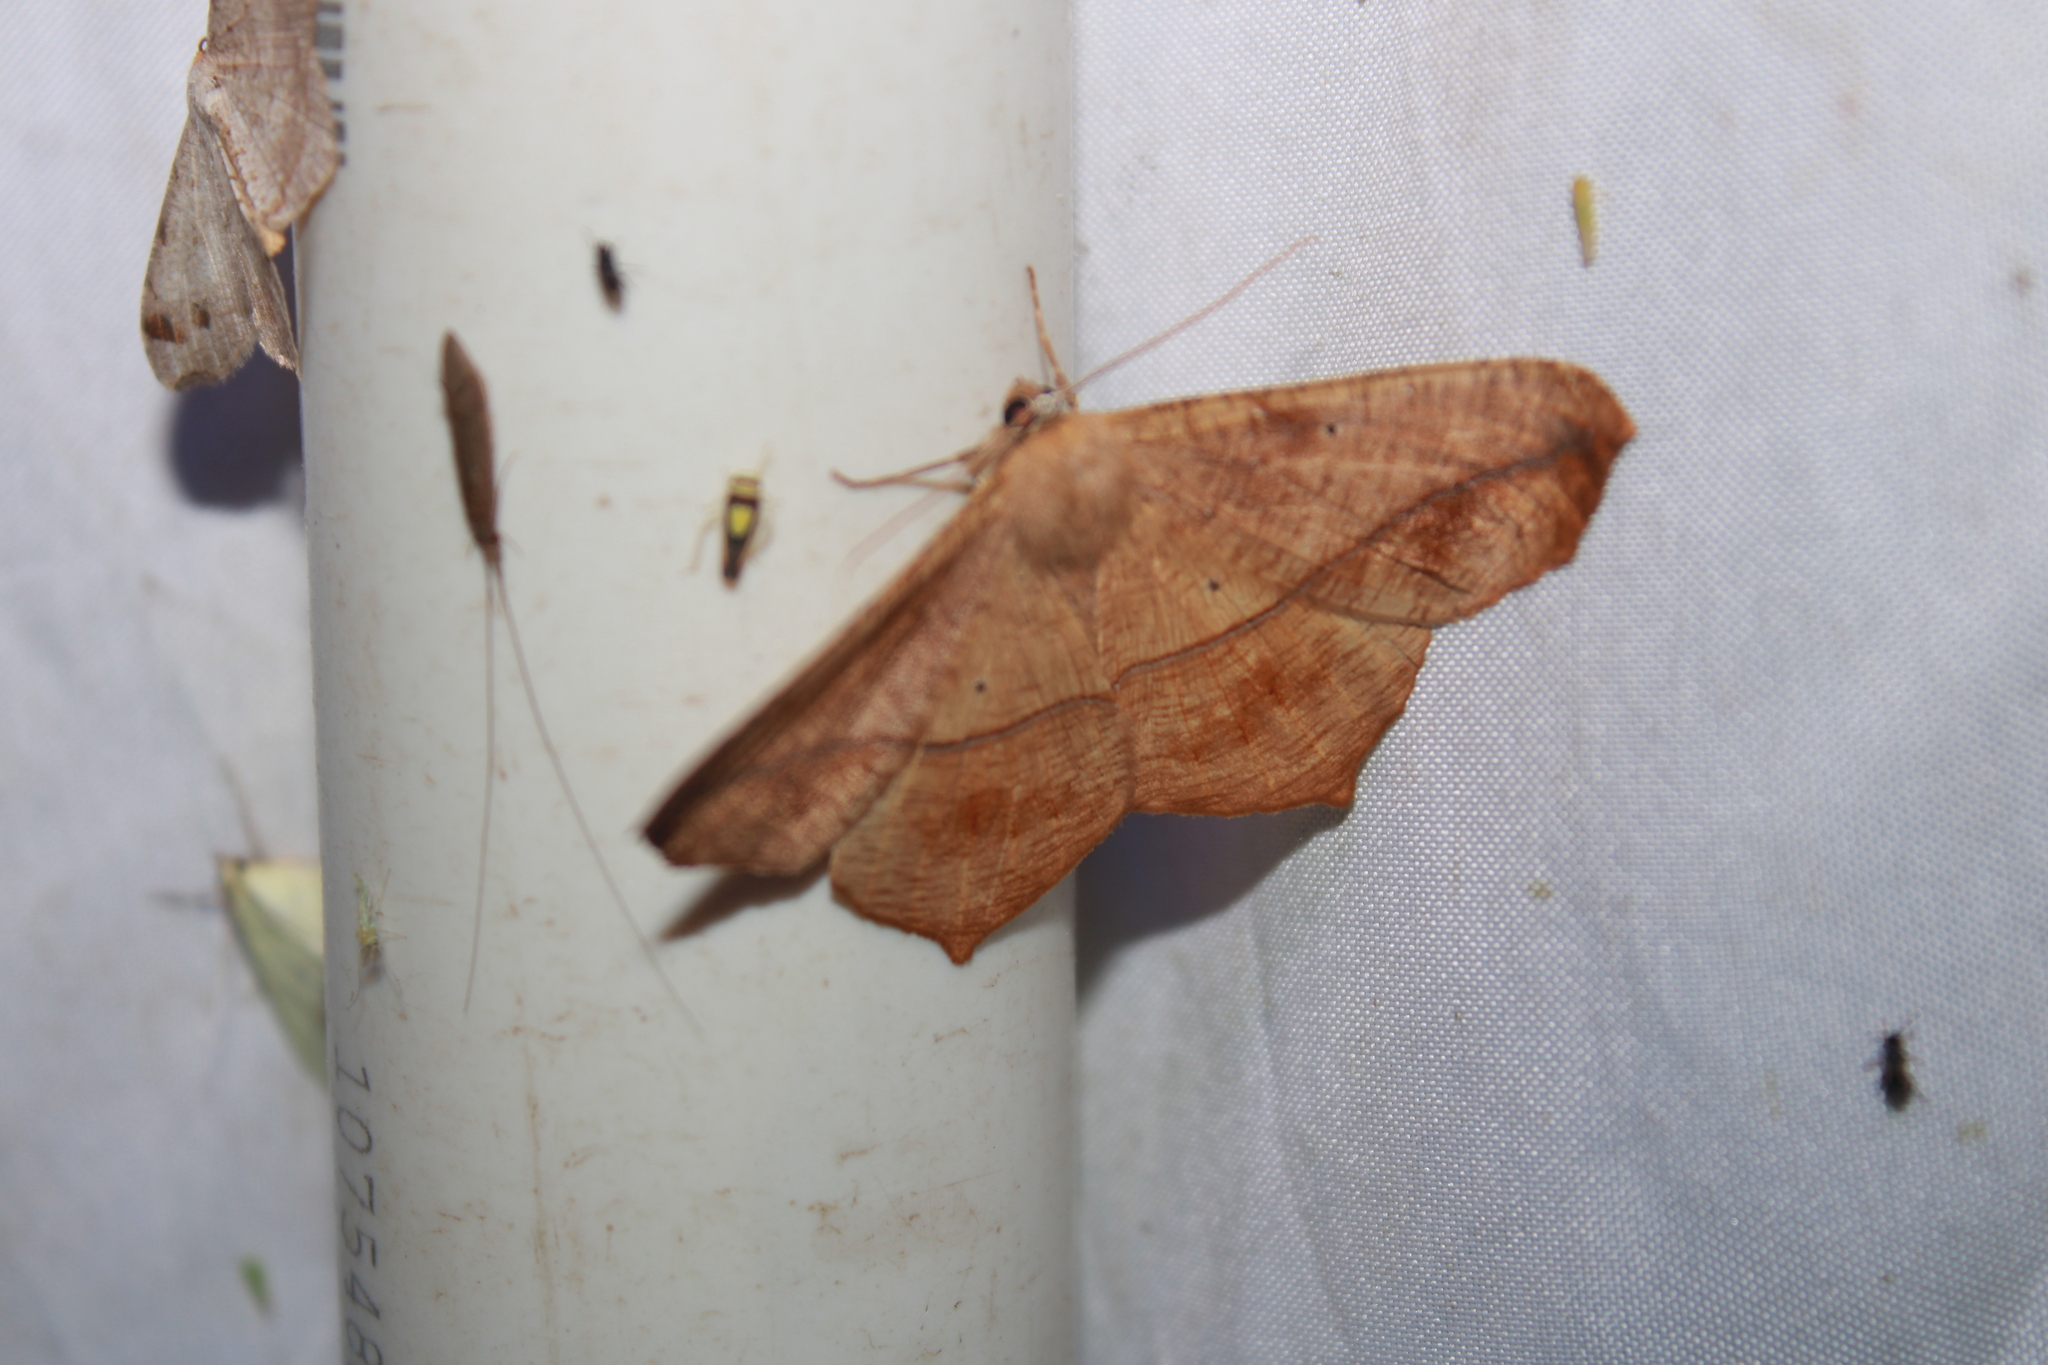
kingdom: Animalia
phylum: Arthropoda
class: Insecta
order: Lepidoptera
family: Geometridae
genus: Prochoerodes
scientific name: Prochoerodes lineola
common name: Large maple spanworm
